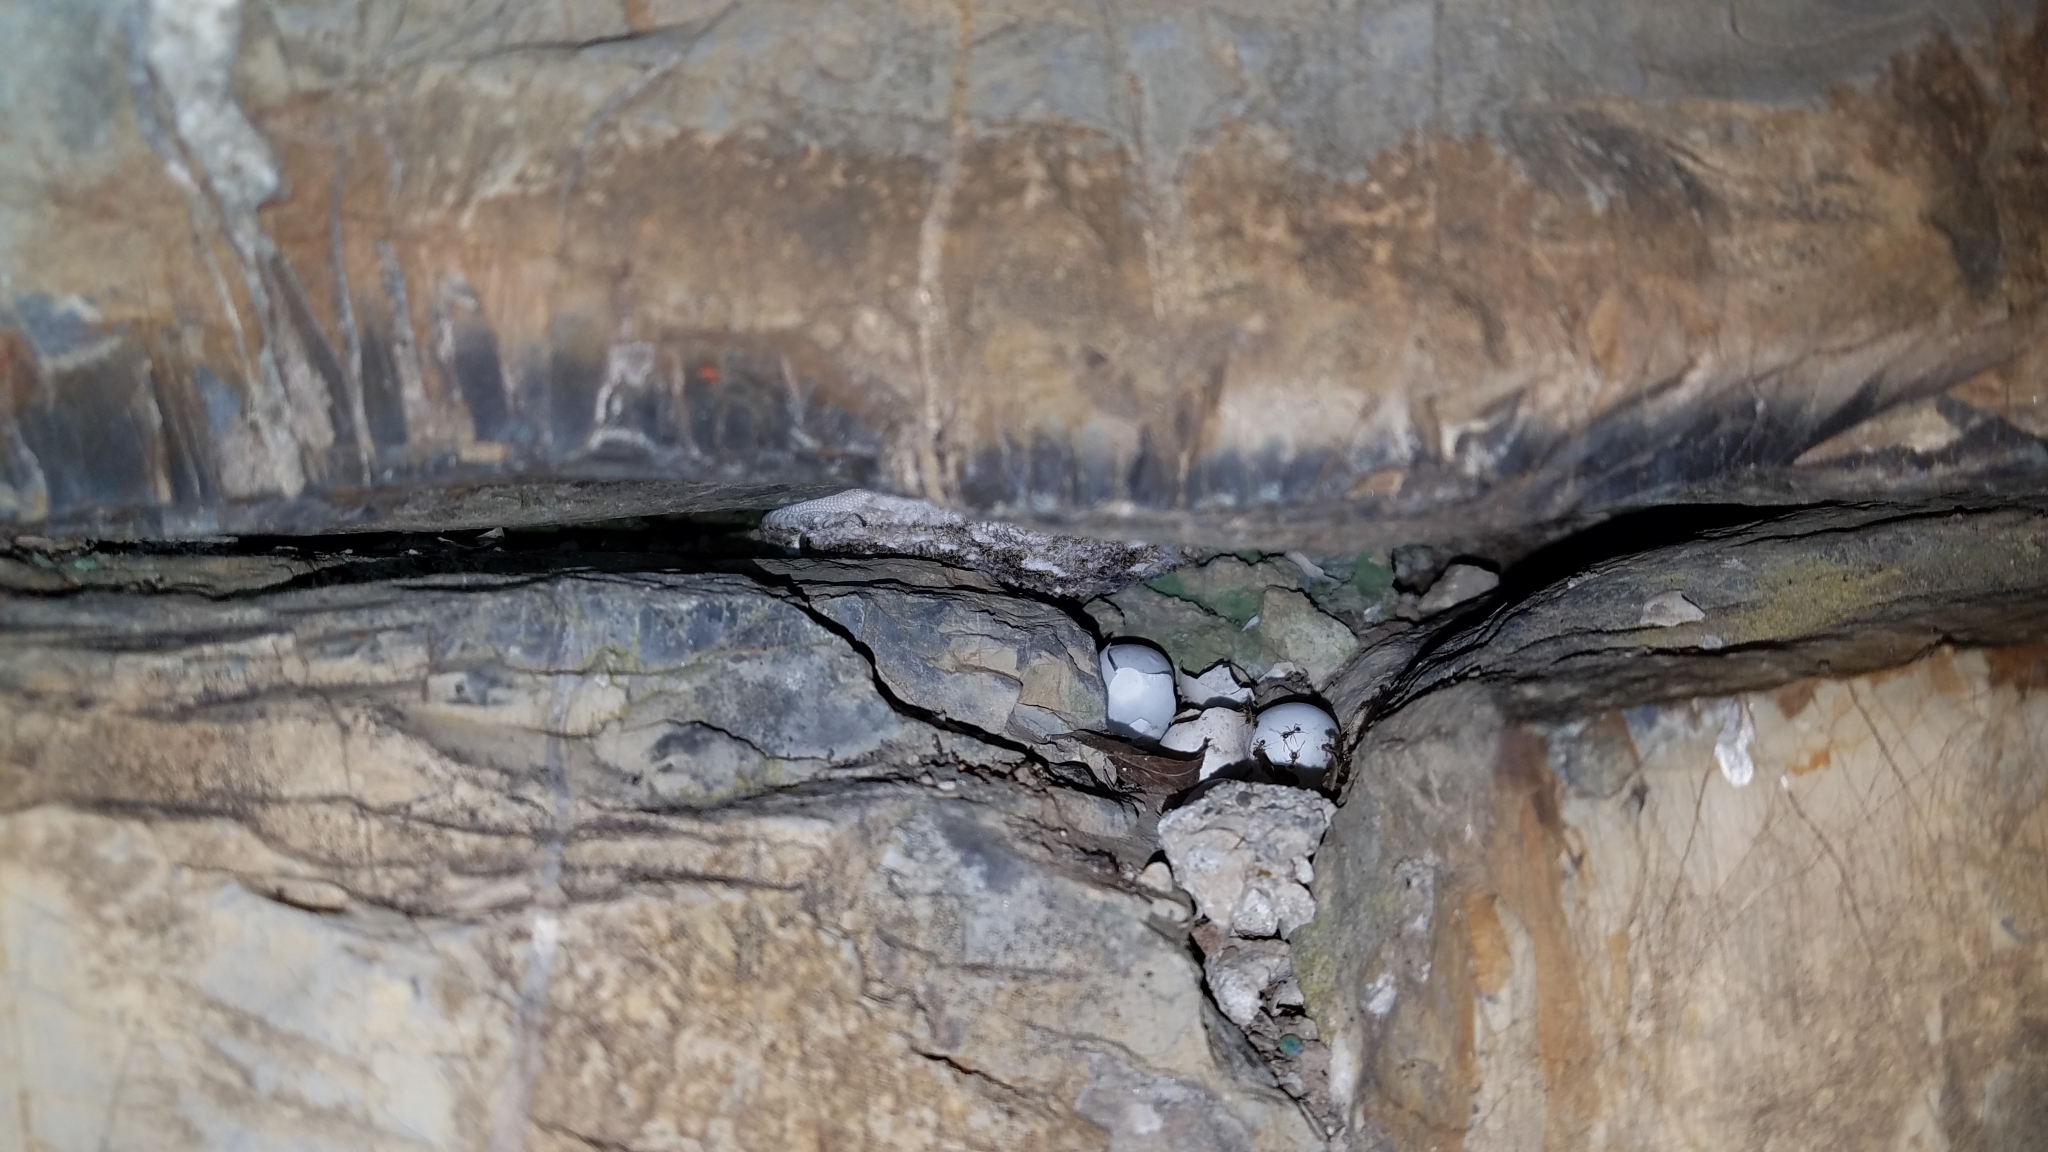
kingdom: Animalia
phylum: Chordata
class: Squamata
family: Phyllodactylidae
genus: Tarentola
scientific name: Tarentola mauritanica
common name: Moorish gecko
